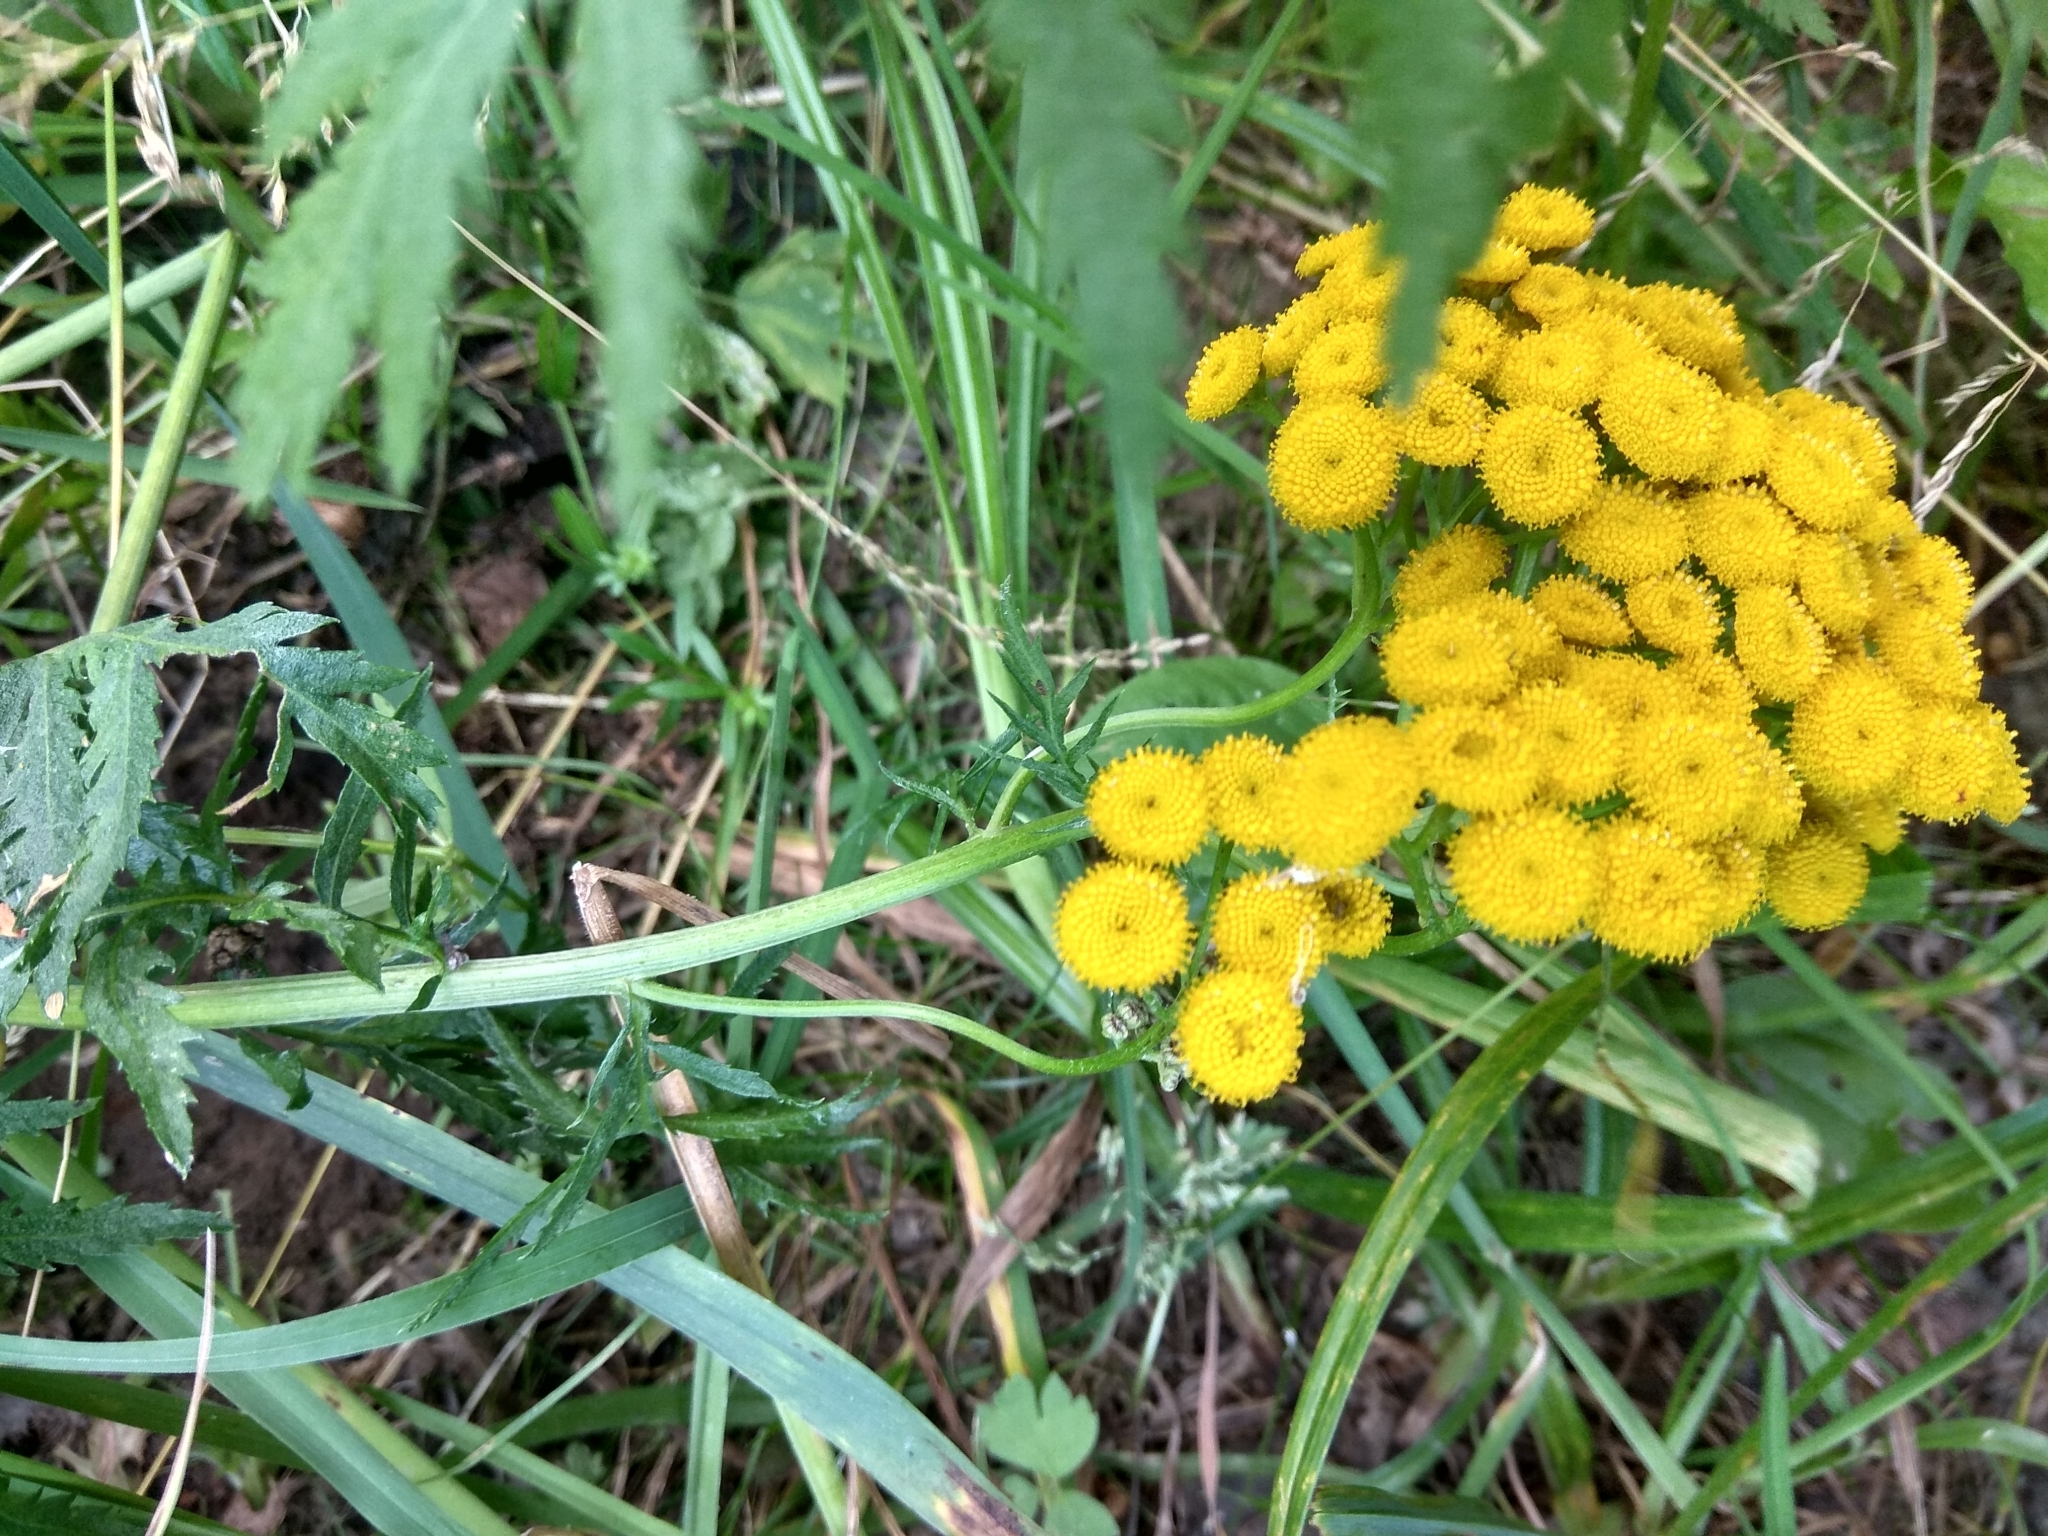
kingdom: Plantae
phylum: Tracheophyta
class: Magnoliopsida
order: Asterales
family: Asteraceae
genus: Tanacetum
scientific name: Tanacetum vulgare
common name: Common tansy
